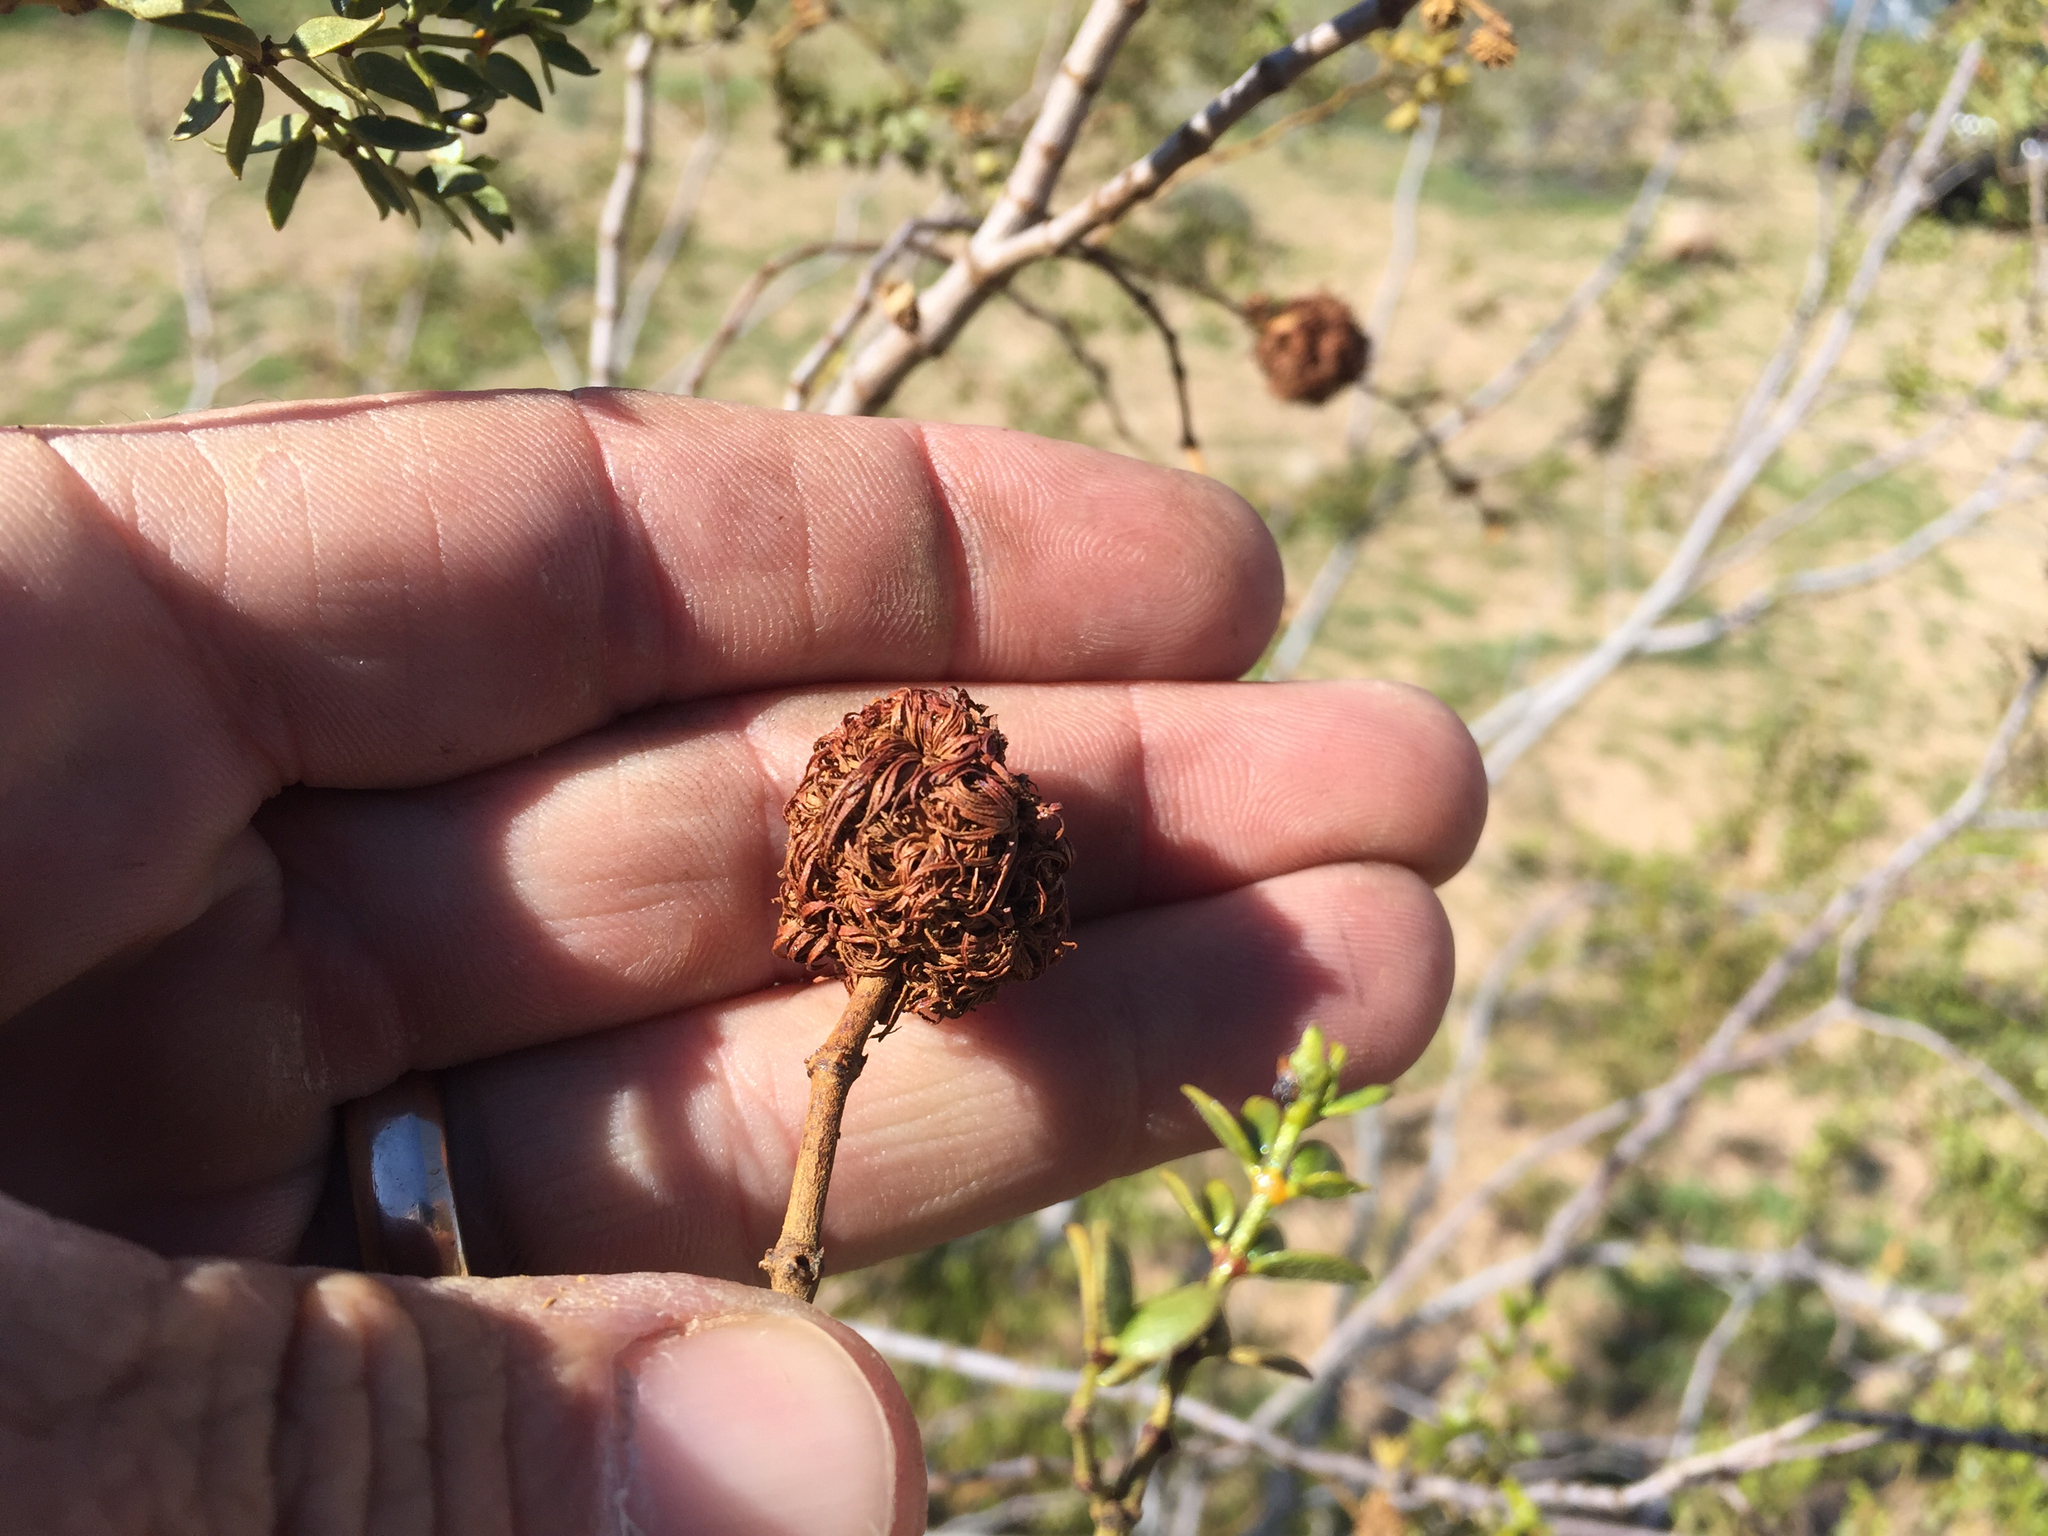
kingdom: Animalia
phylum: Arthropoda
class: Insecta
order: Diptera
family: Cecidomyiidae
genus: Asphondylia
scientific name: Asphondylia auripila
